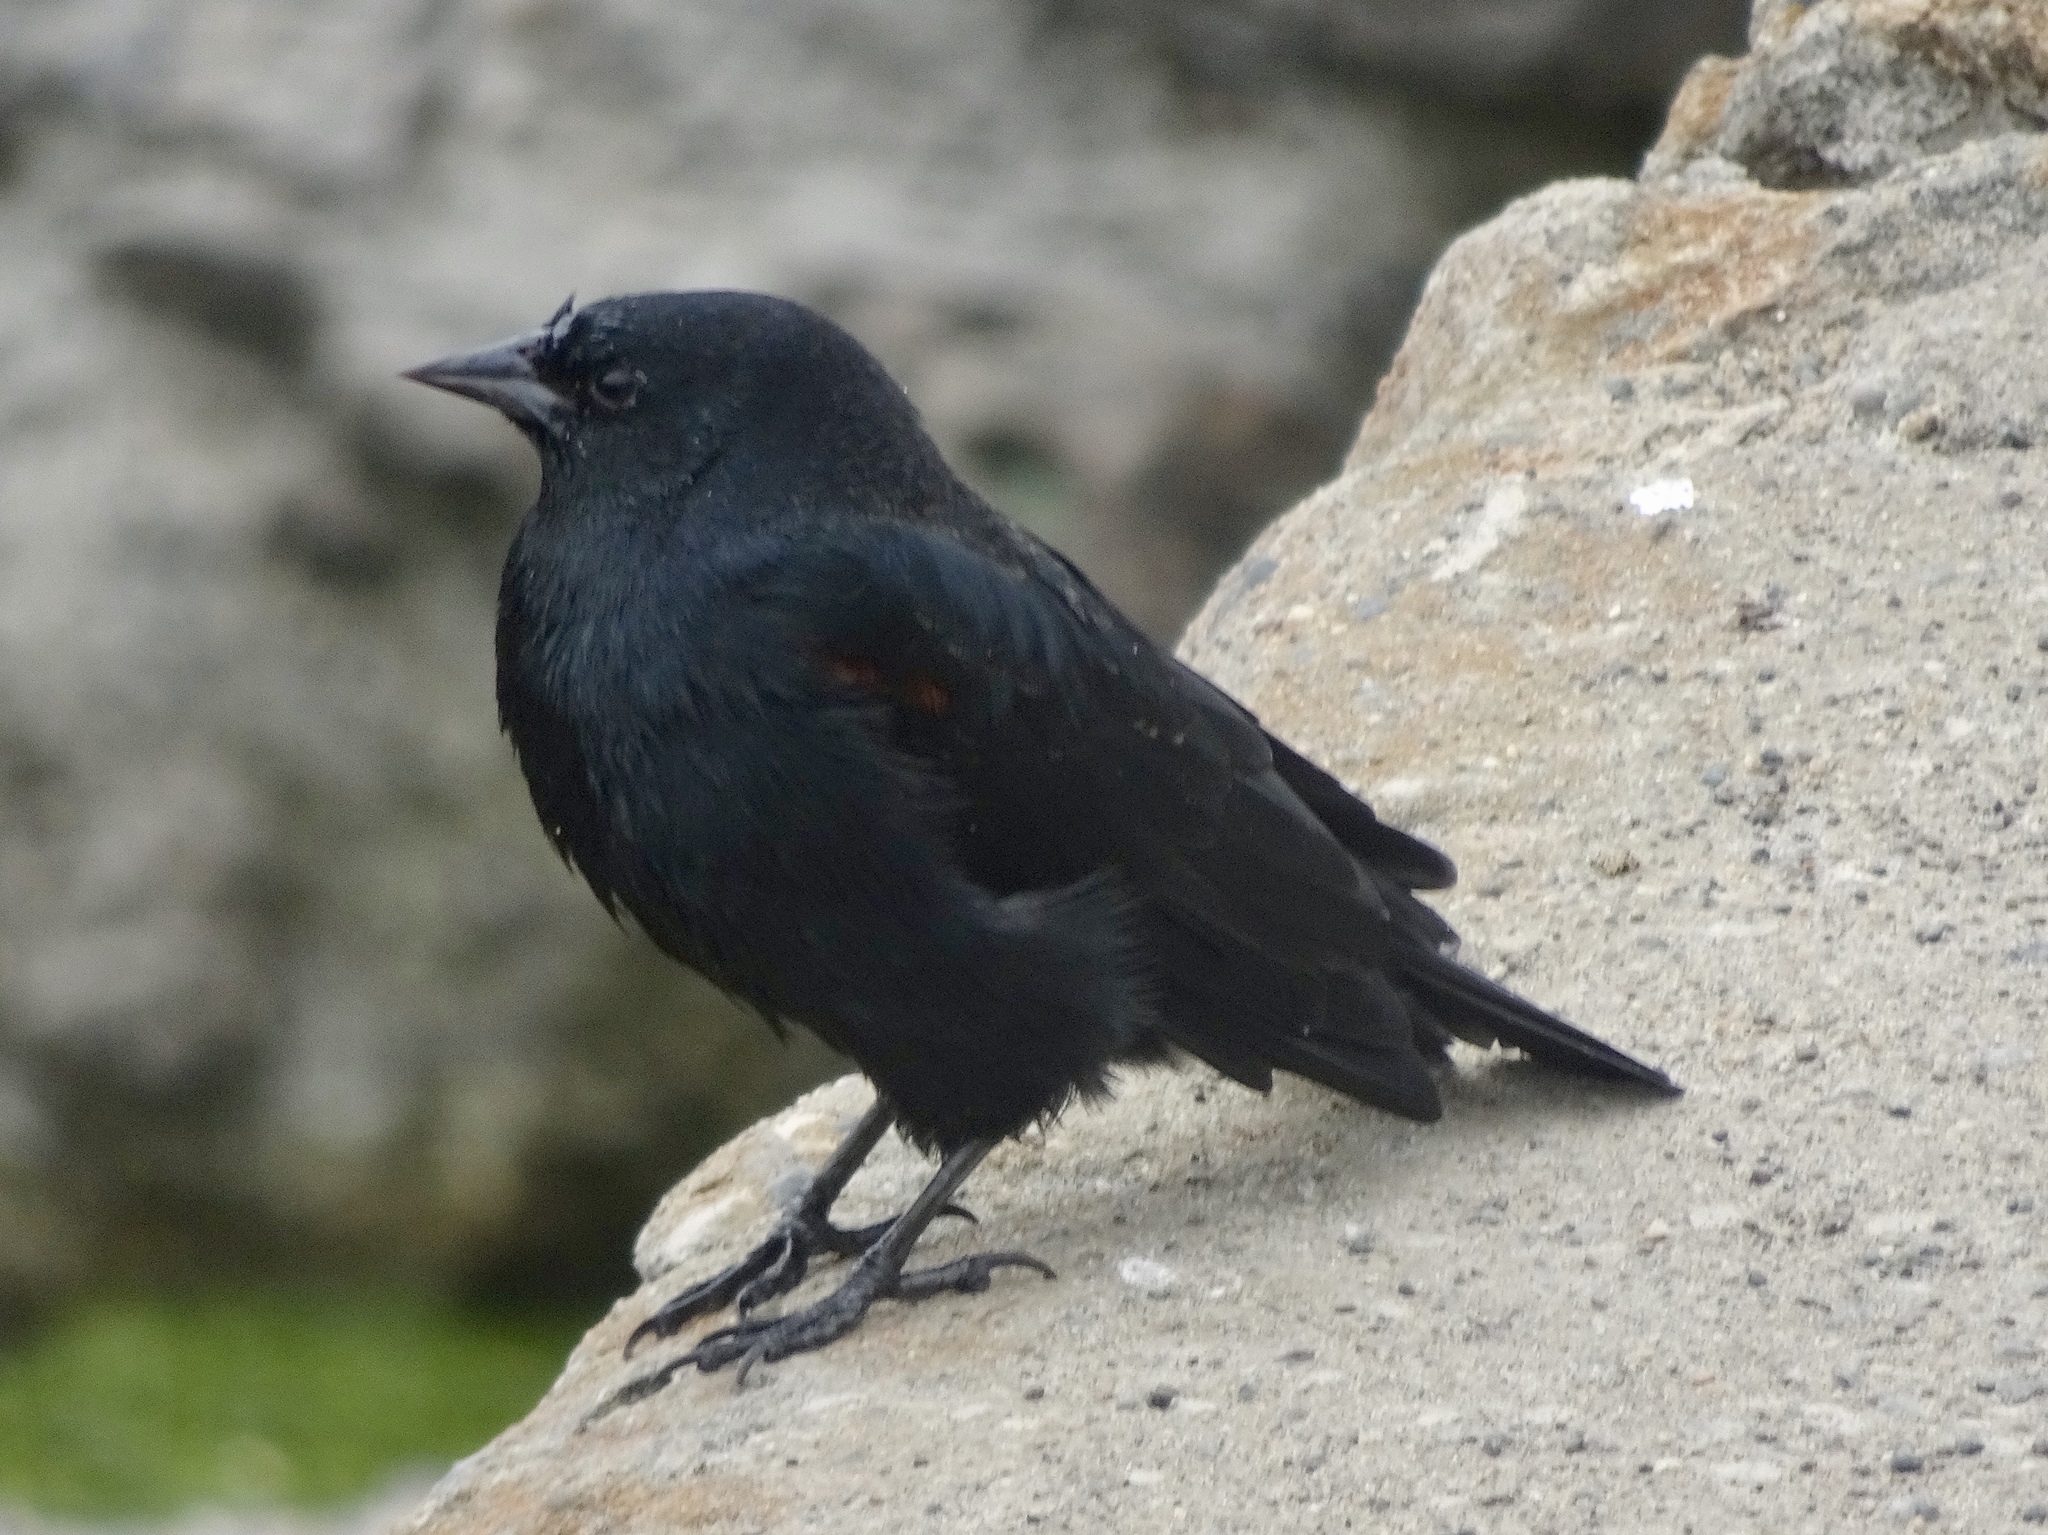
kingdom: Animalia
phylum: Chordata
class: Aves
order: Passeriformes
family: Icteridae
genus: Agelaius
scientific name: Agelaius phoeniceus
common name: Red-winged blackbird
